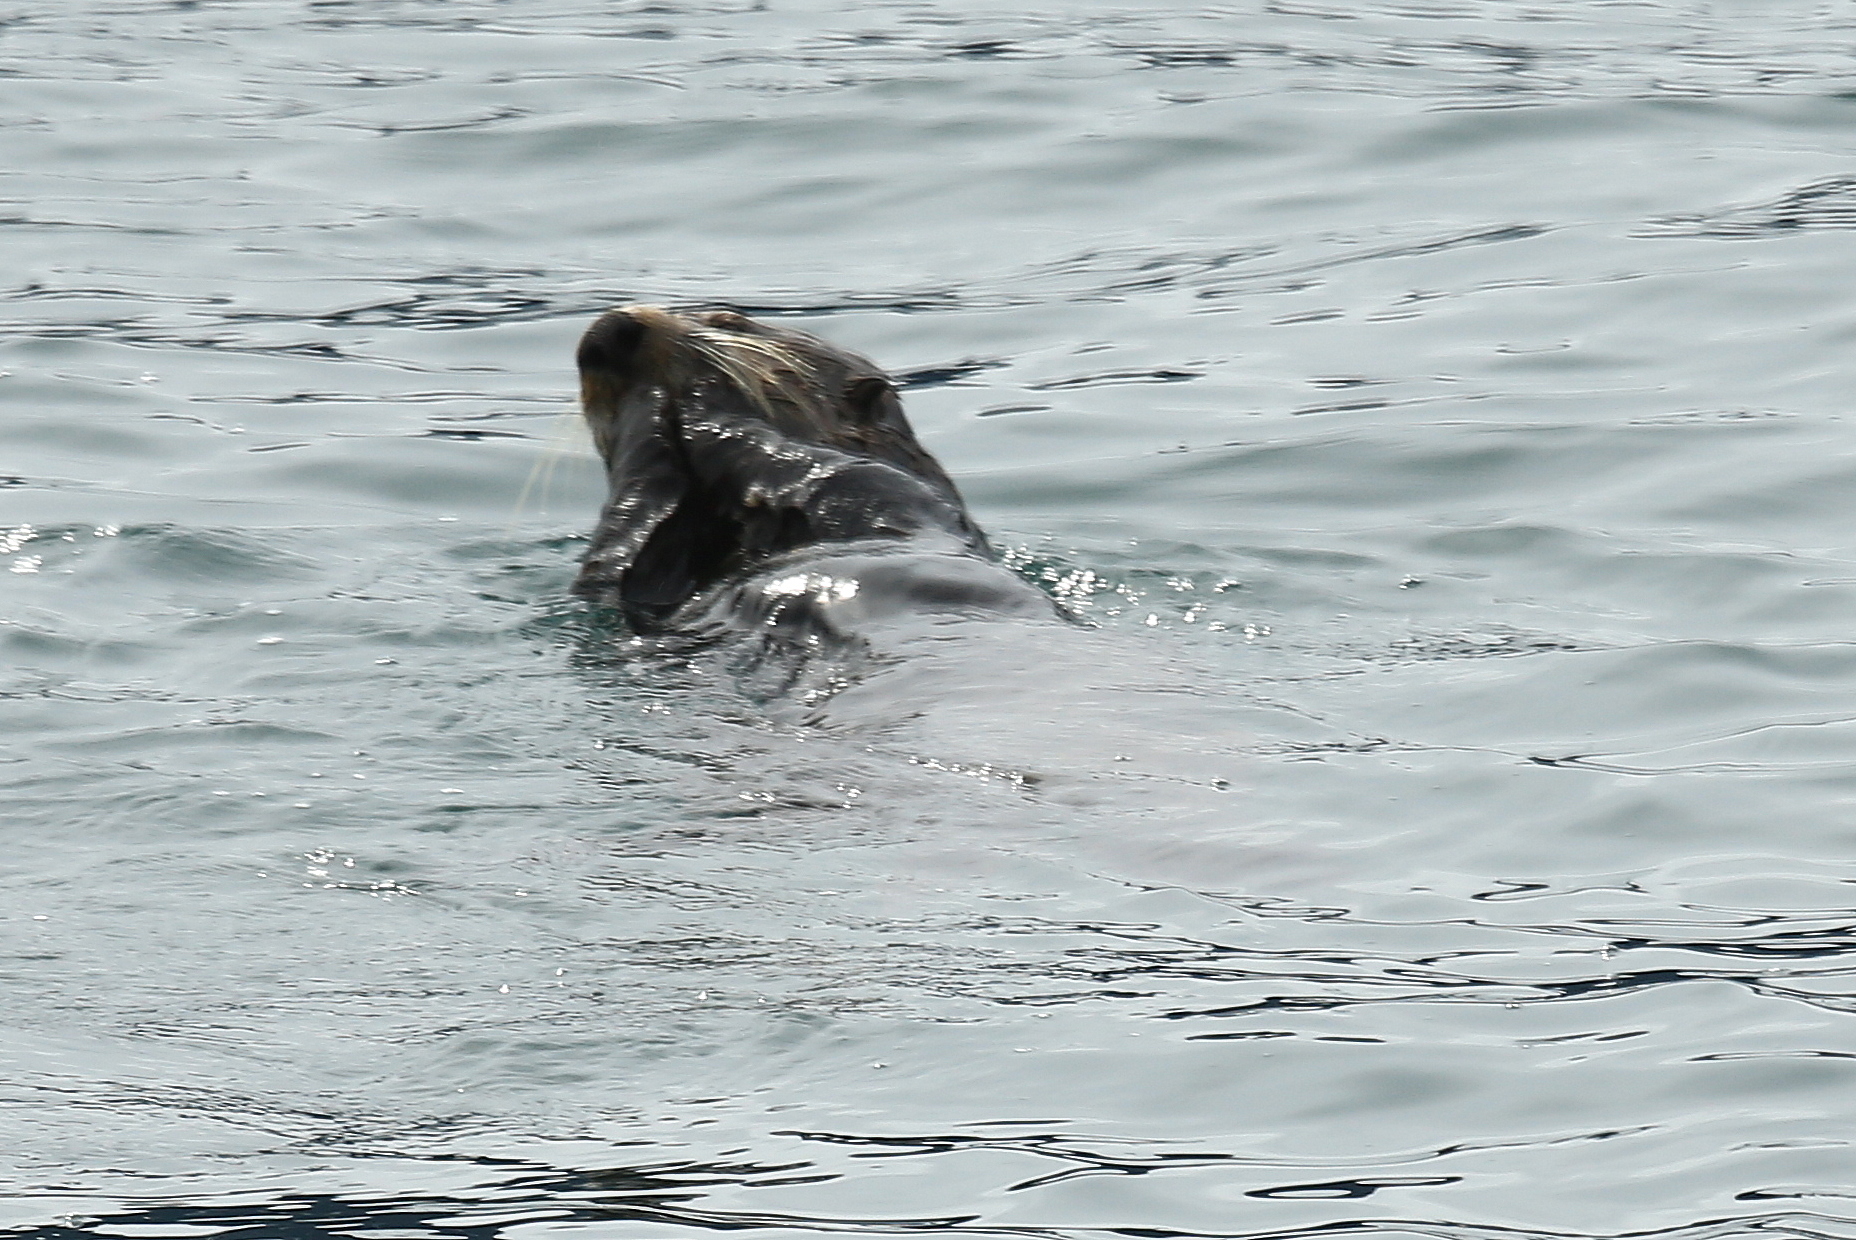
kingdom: Animalia
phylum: Chordata
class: Mammalia
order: Carnivora
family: Mustelidae
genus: Enhydra
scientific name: Enhydra lutris
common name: Sea otter
